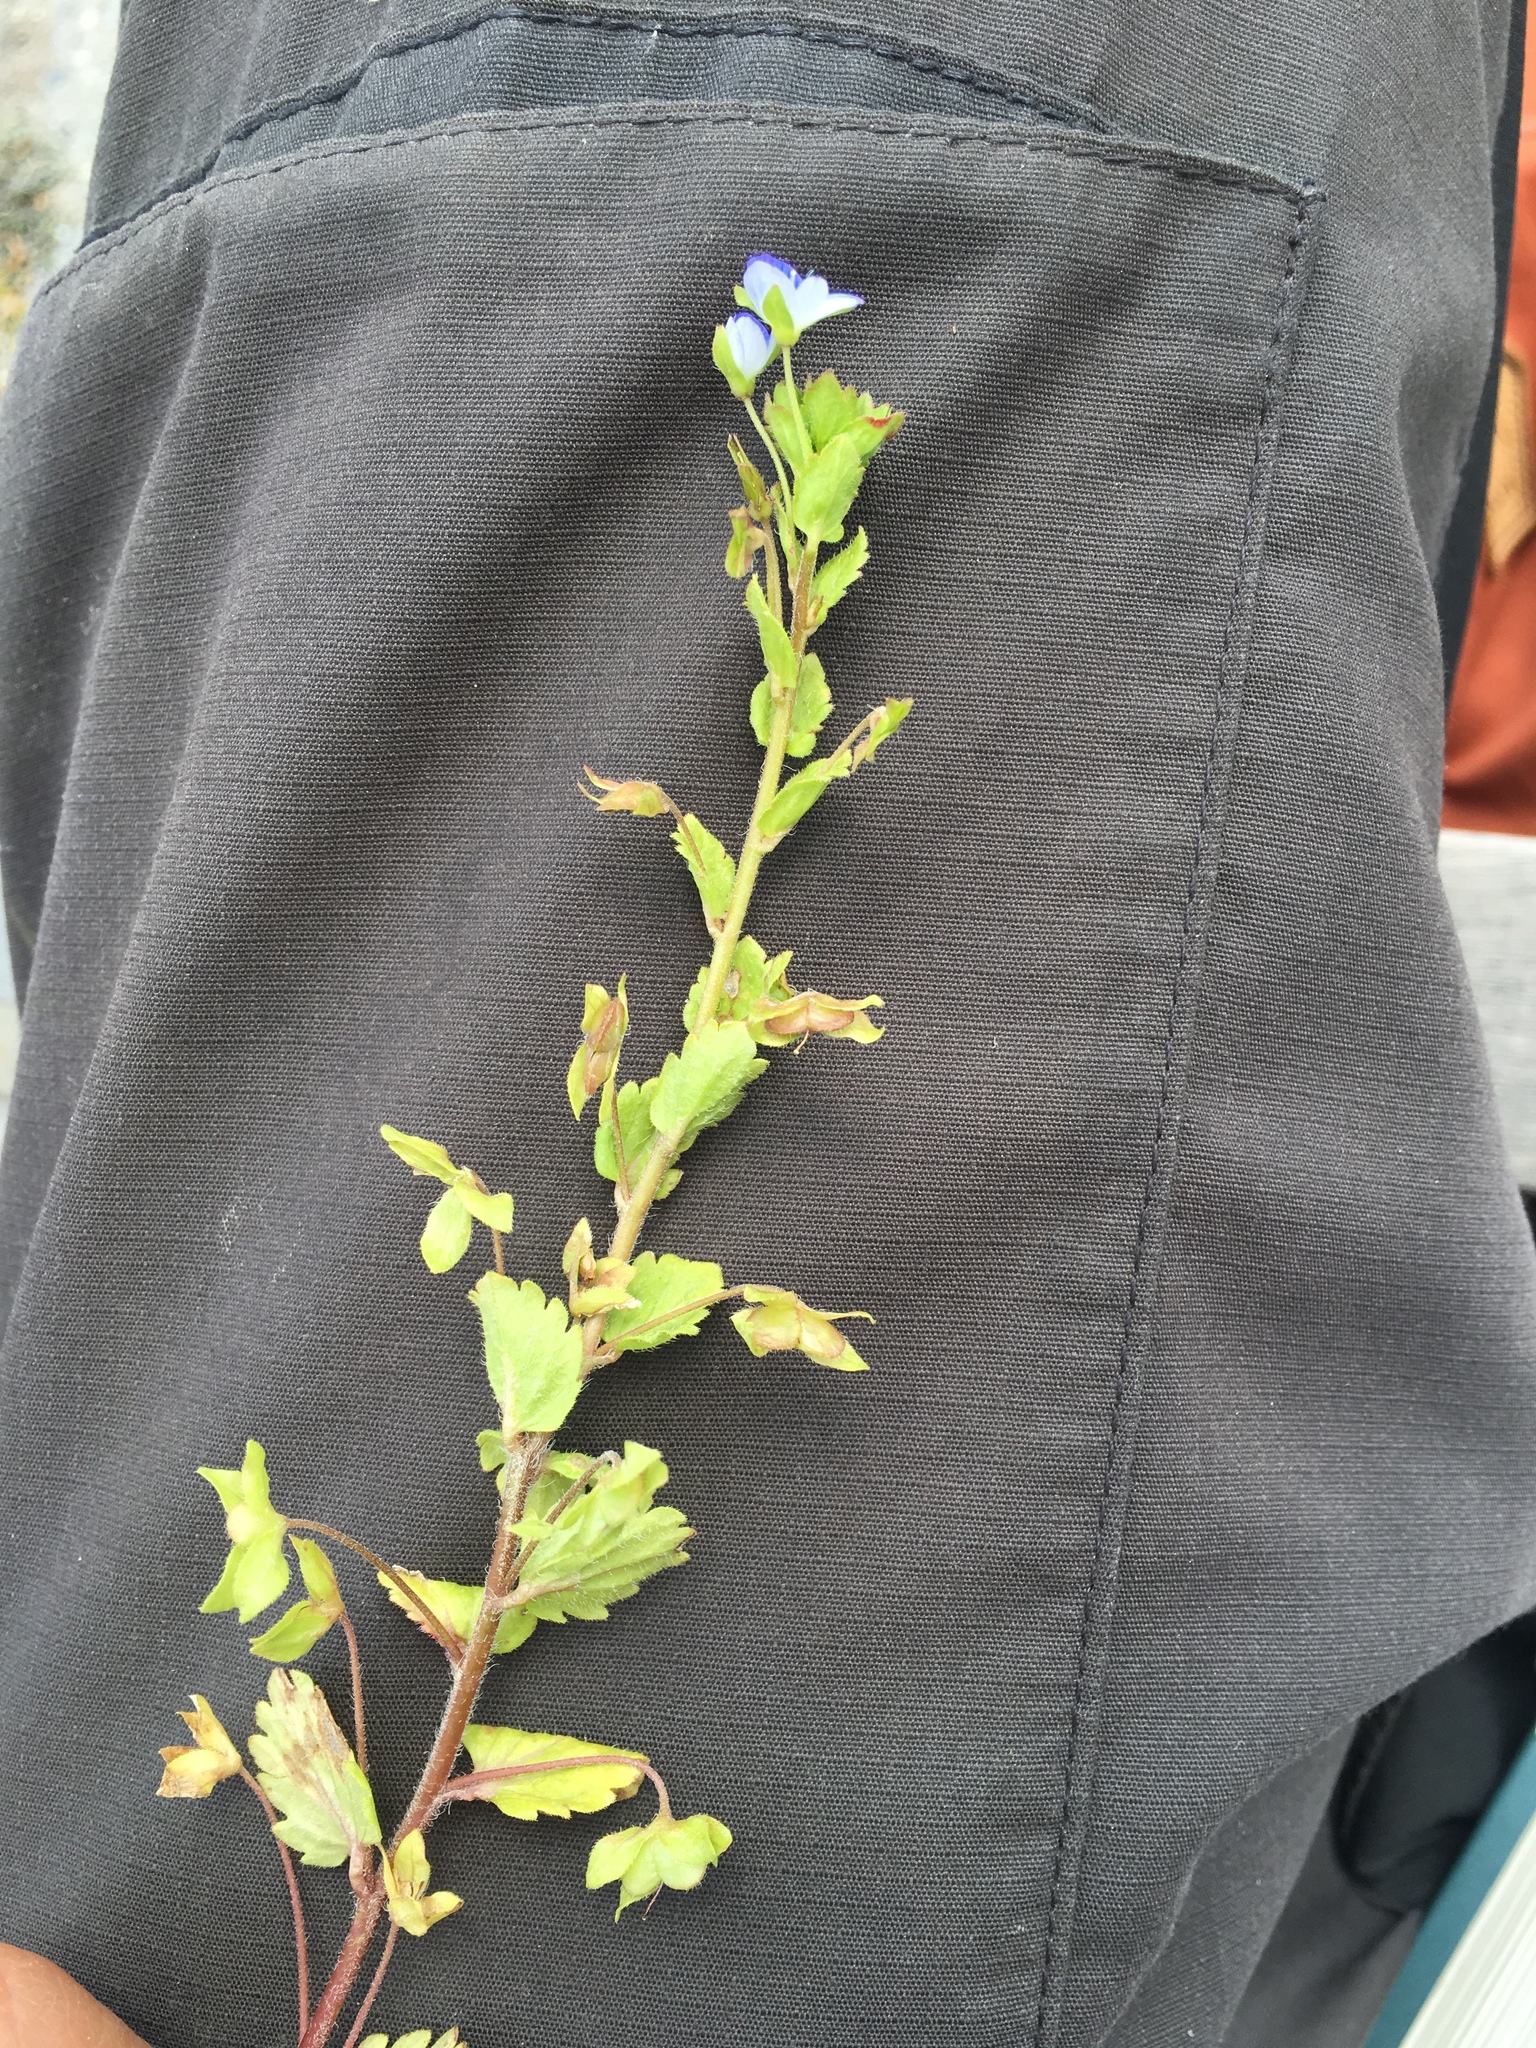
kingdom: Plantae
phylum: Tracheophyta
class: Magnoliopsida
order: Lamiales
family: Plantaginaceae
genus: Veronica
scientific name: Veronica persica
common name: Common field-speedwell
